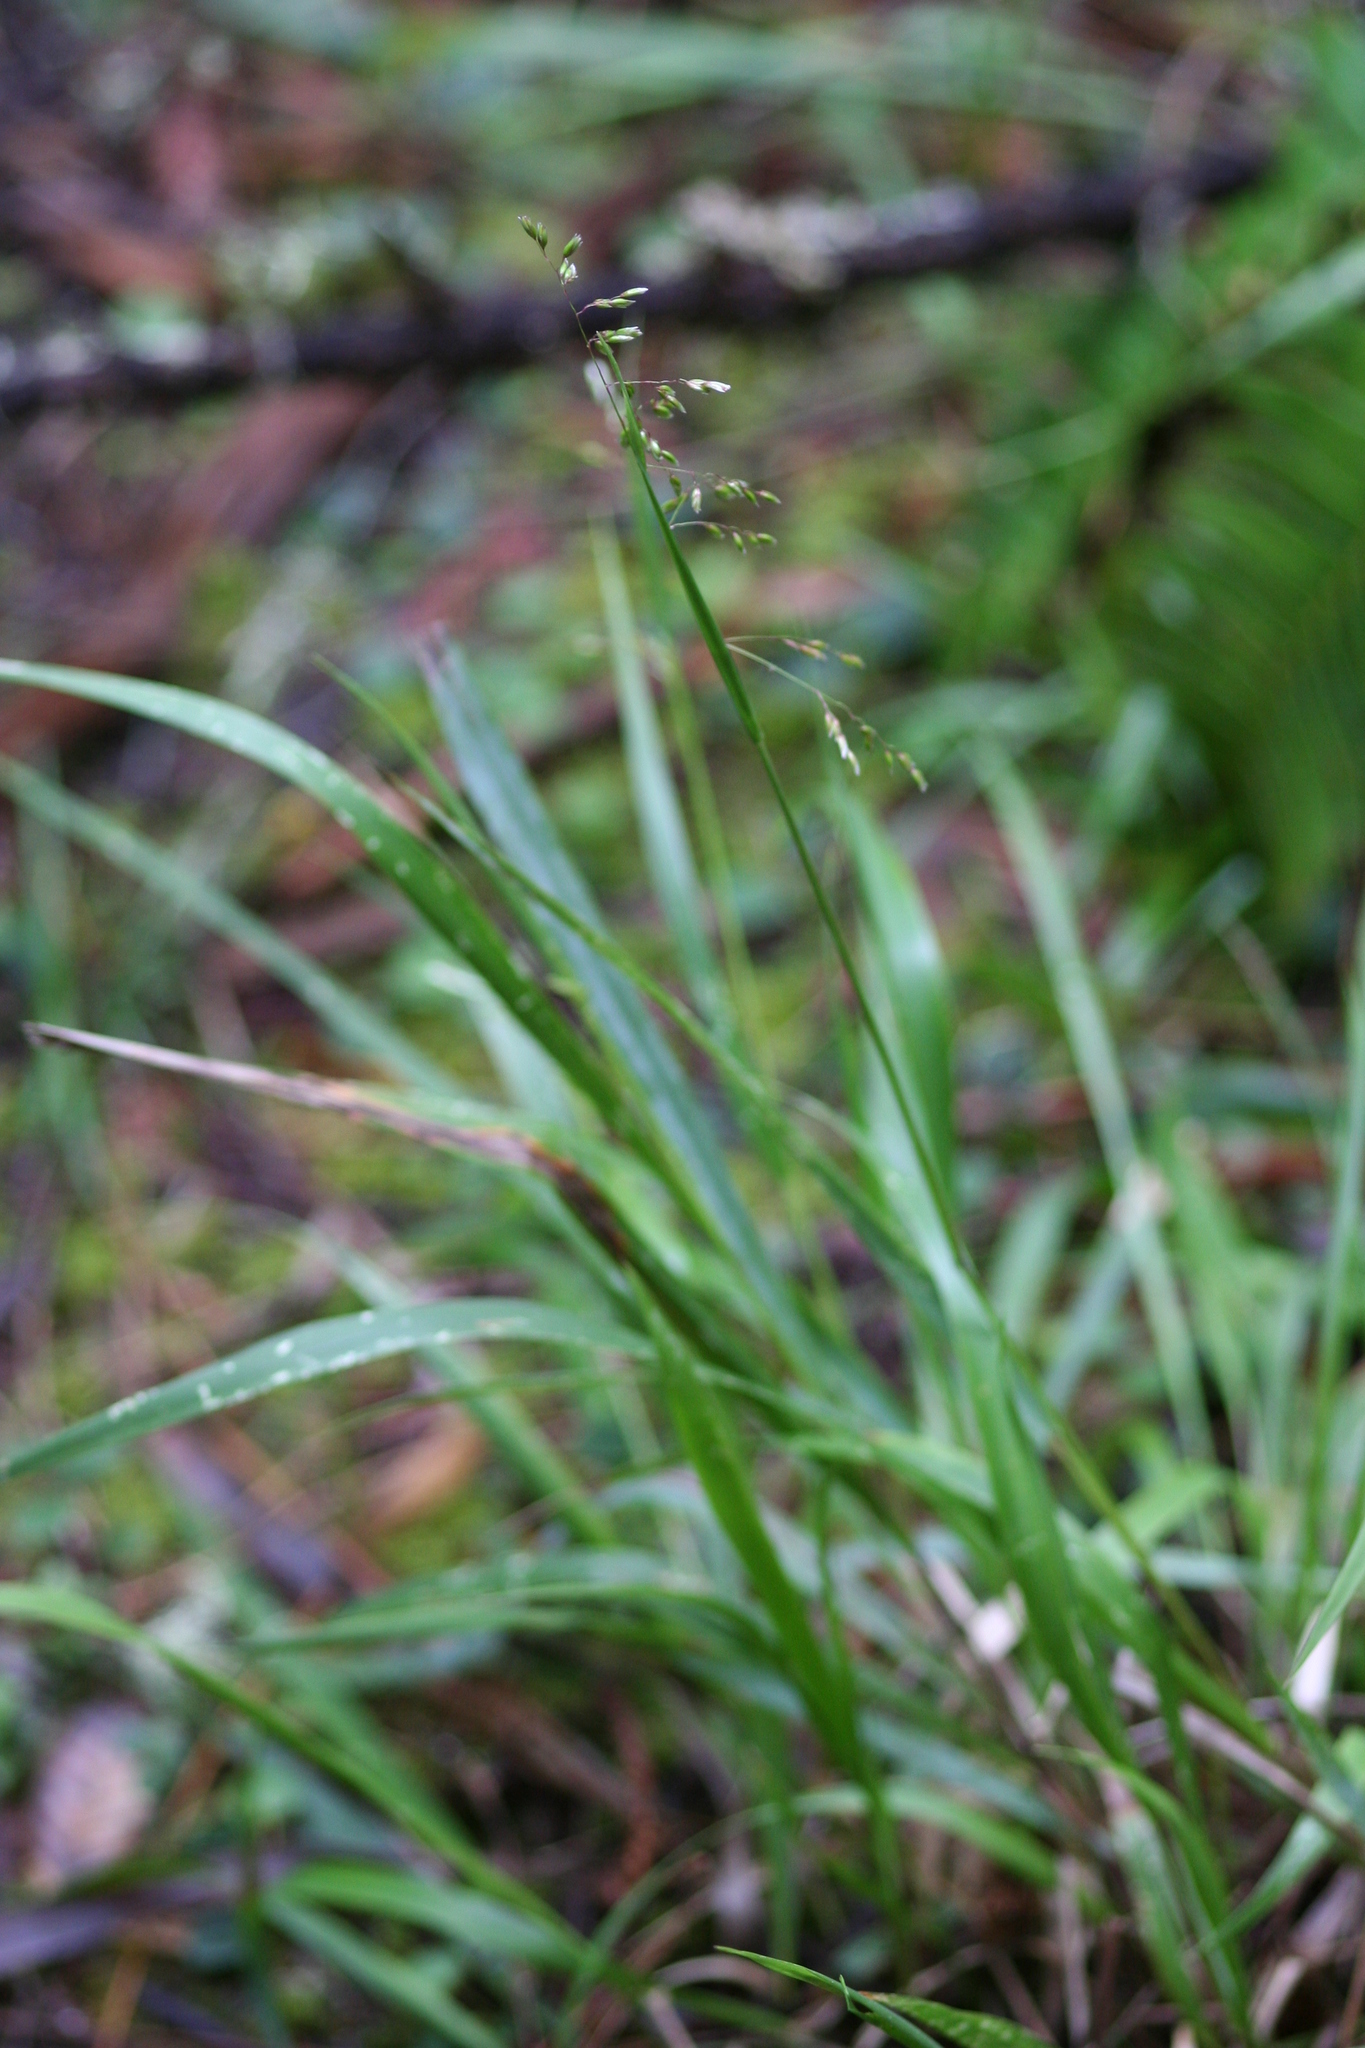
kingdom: Plantae
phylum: Tracheophyta
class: Liliopsida
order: Poales
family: Poaceae
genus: Anthoxanthum
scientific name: Anthoxanthum occidentale
